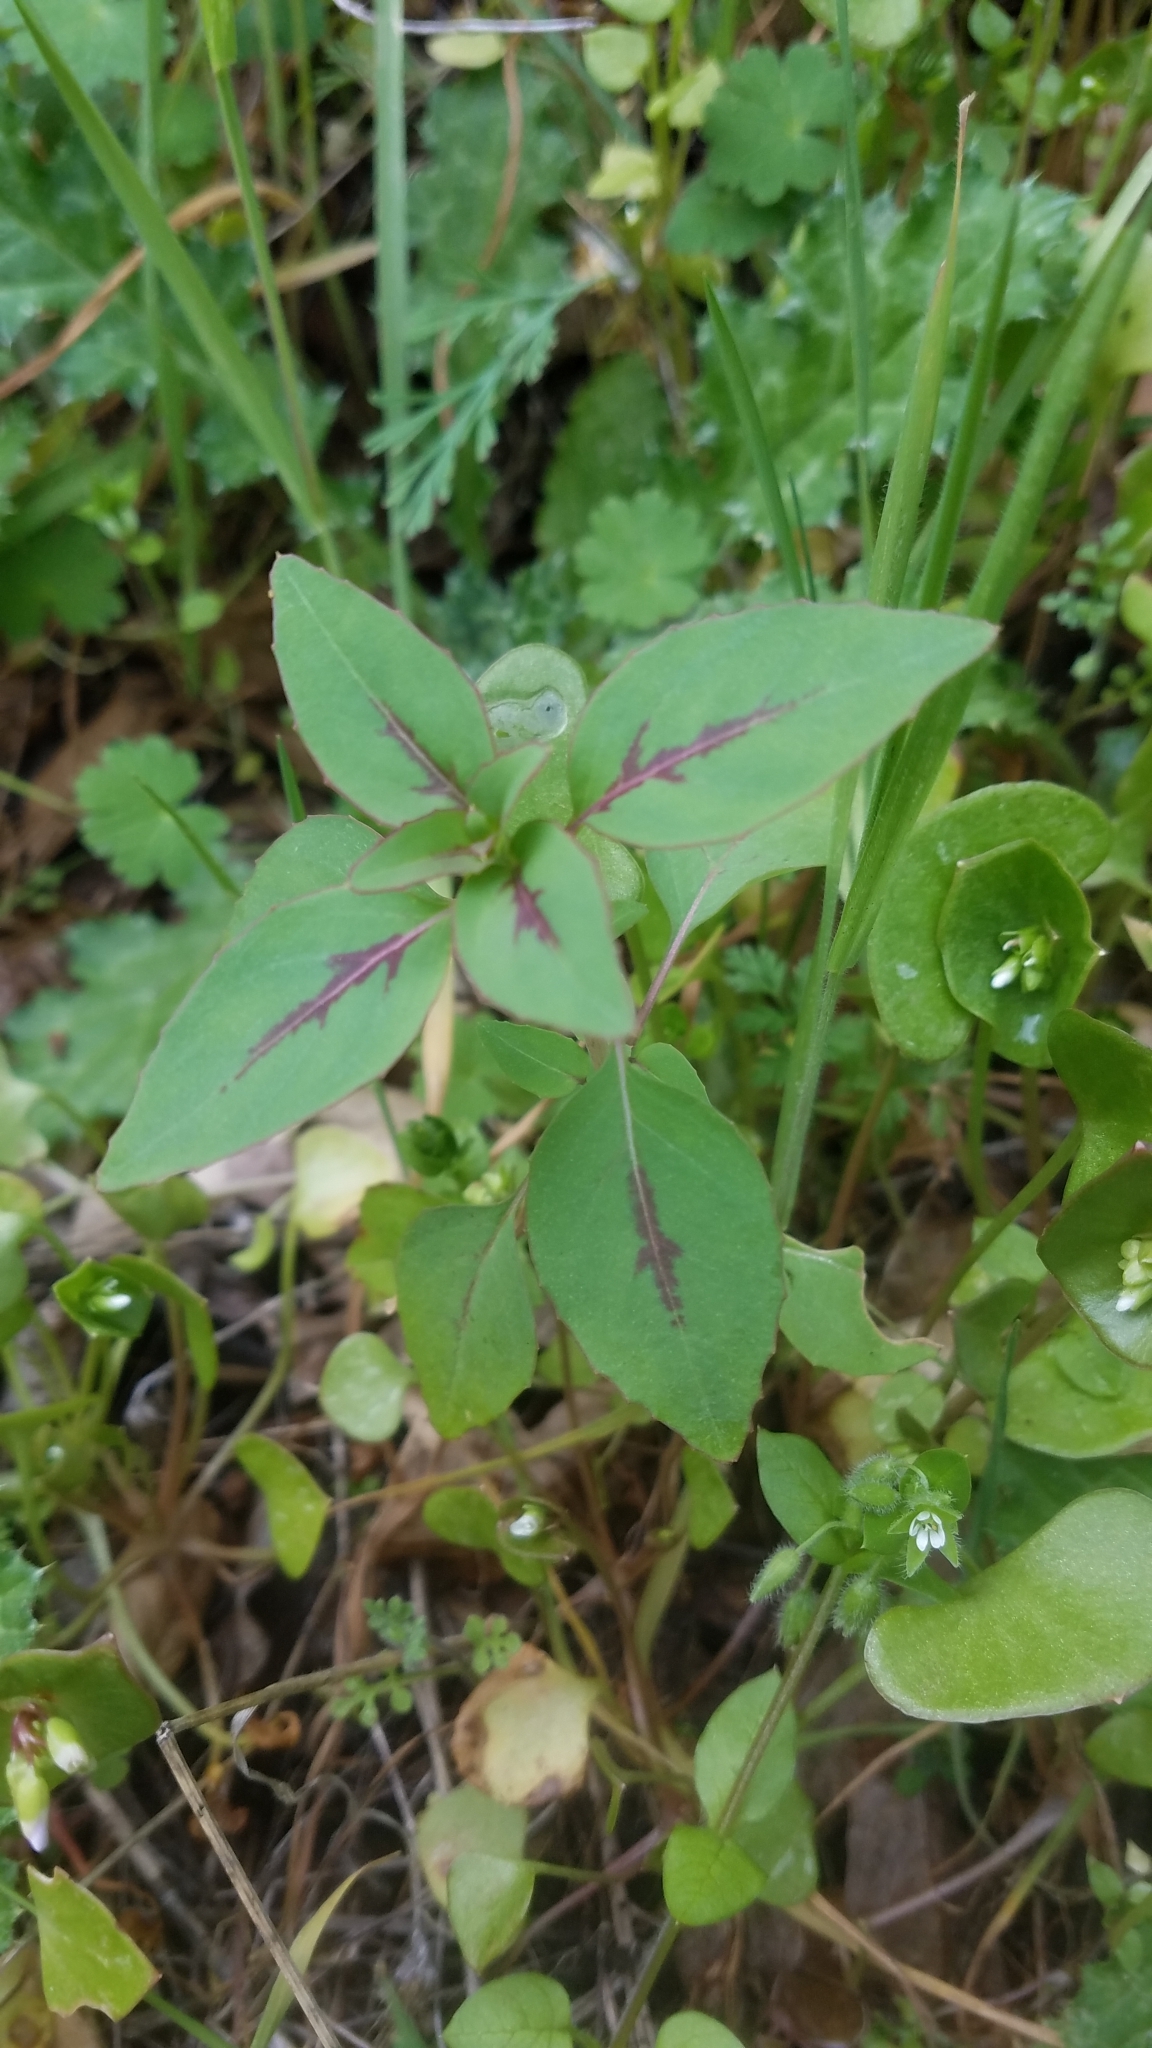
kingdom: Plantae
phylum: Tracheophyta
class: Magnoliopsida
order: Myrtales
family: Onagraceae
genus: Clarkia
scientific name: Clarkia unguiculata
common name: Clarkia
